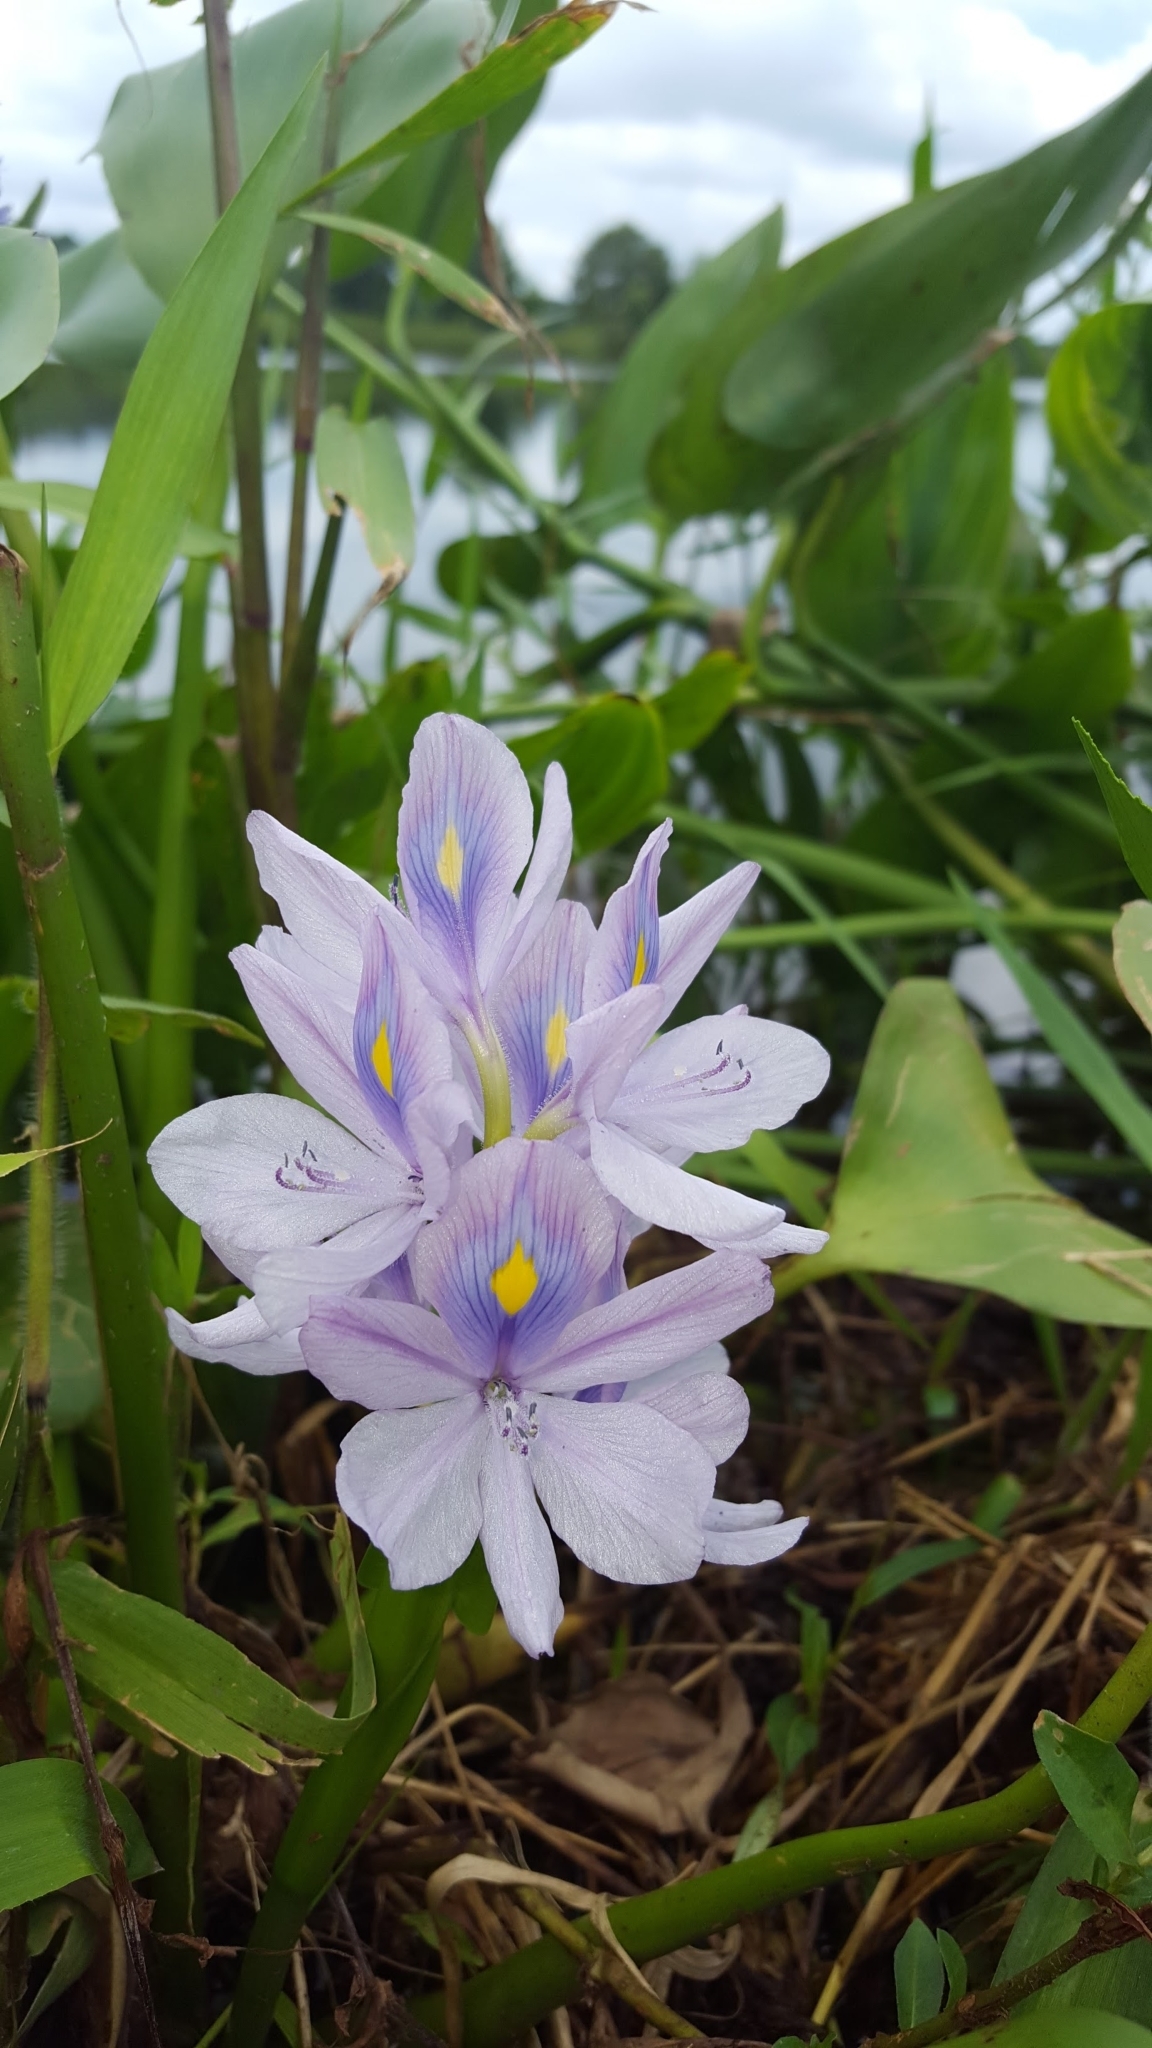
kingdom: Plantae
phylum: Tracheophyta
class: Liliopsida
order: Commelinales
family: Pontederiaceae
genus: Pontederia
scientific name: Pontederia crassipes
